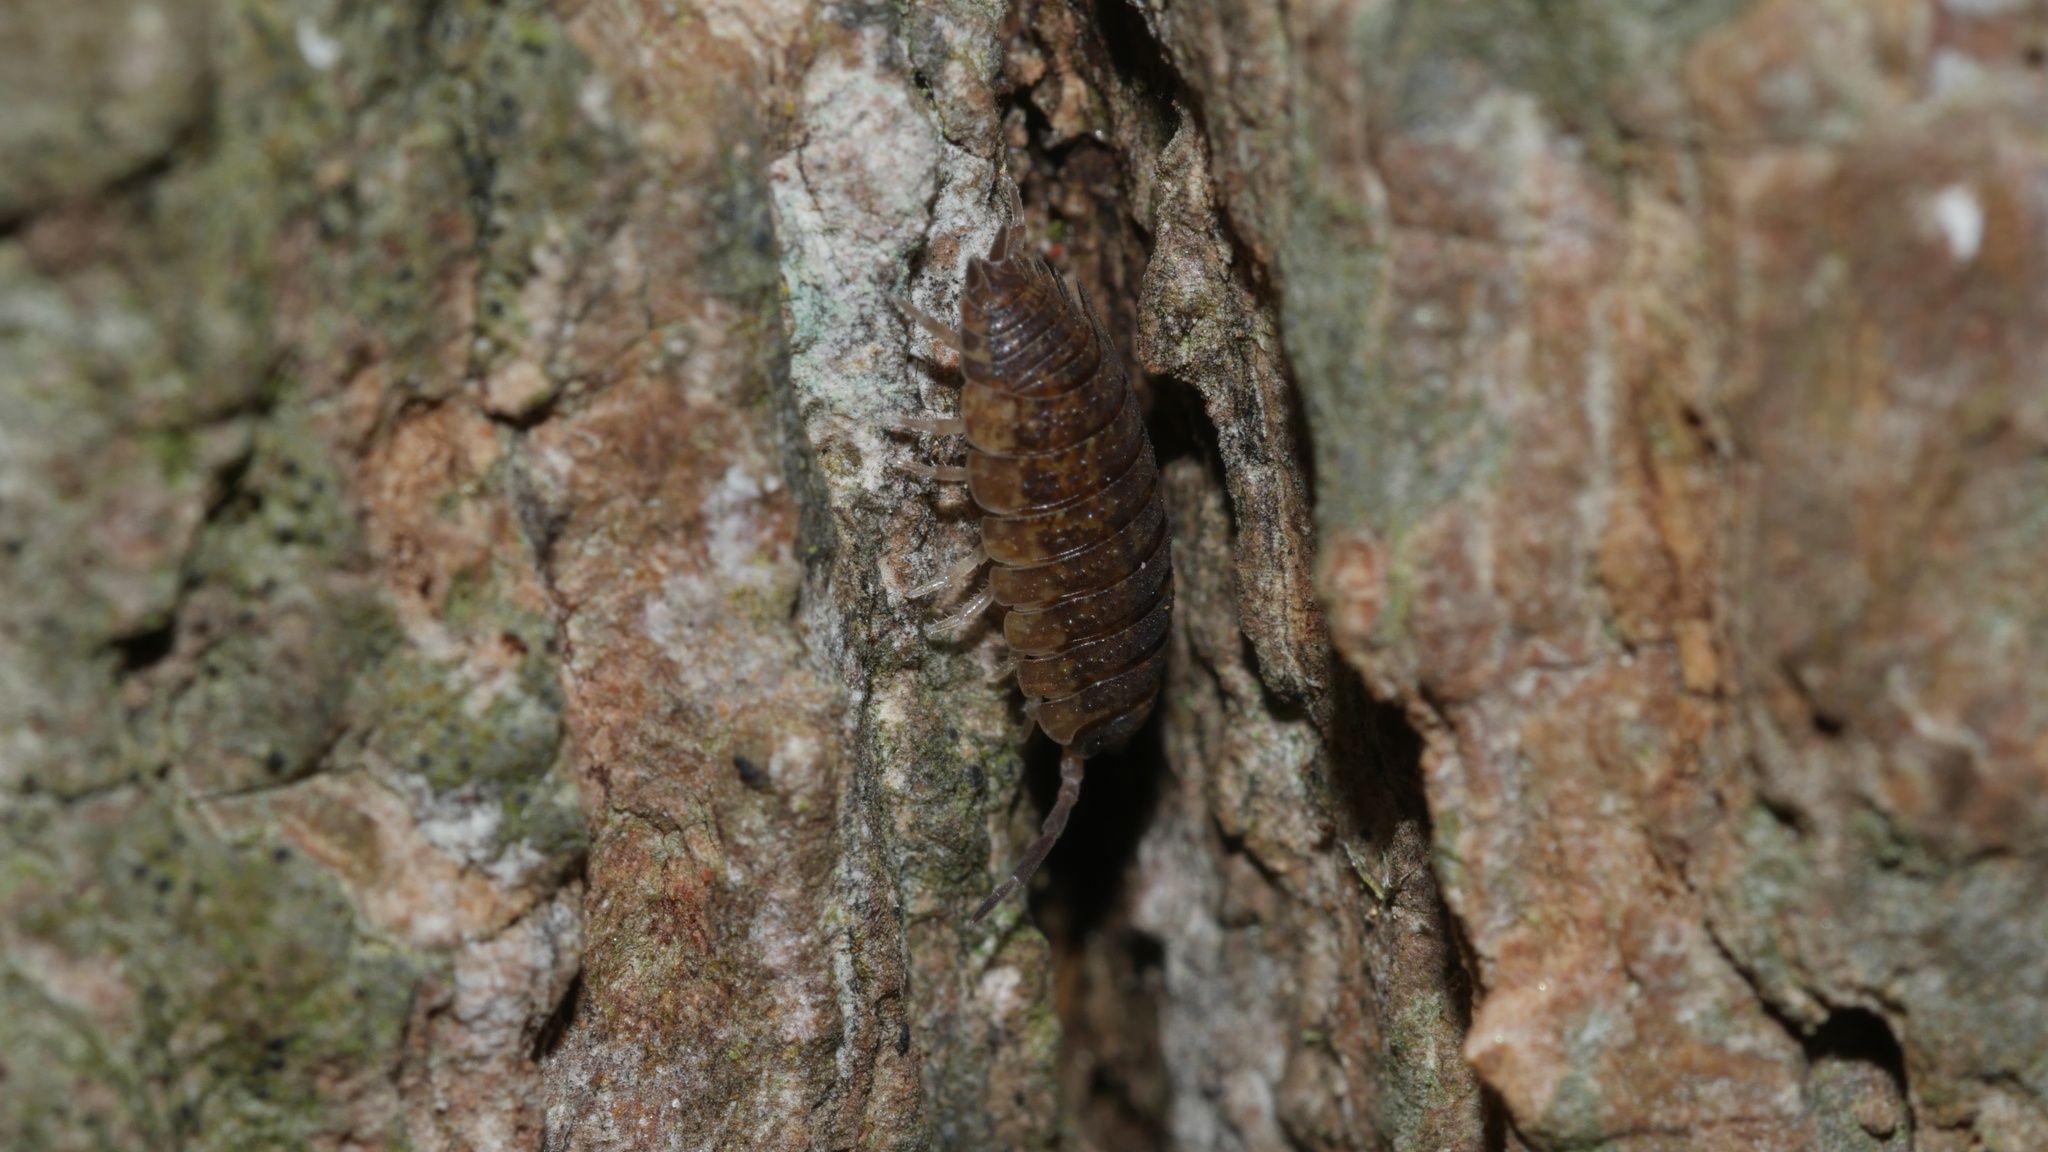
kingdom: Animalia
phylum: Arthropoda
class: Malacostraca
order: Isopoda
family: Porcellionidae
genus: Porcellio
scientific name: Porcellio scaber
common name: Common rough woodlouse
